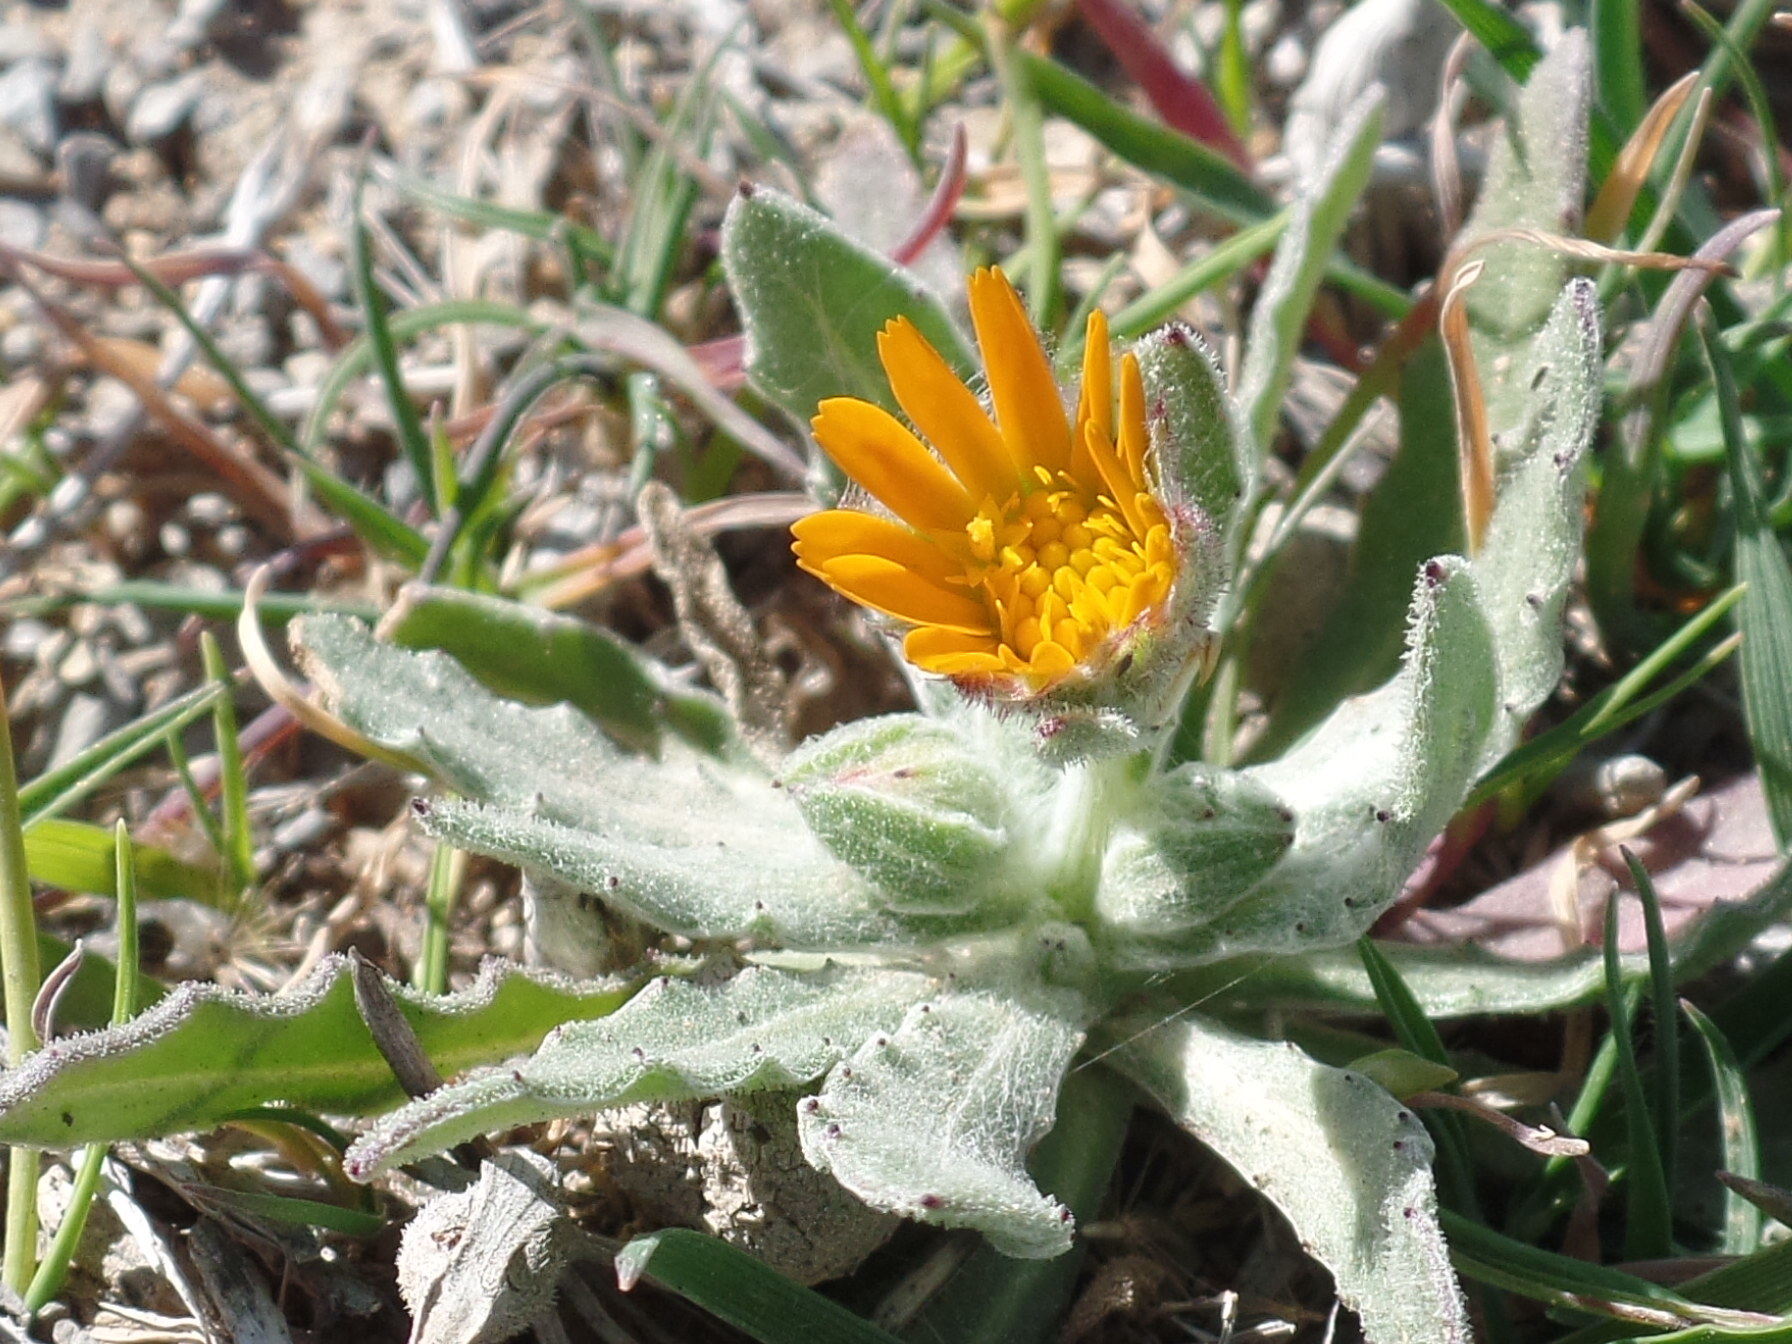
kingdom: Plantae
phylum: Tracheophyta
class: Magnoliopsida
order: Asterales
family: Asteraceae
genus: Calendula
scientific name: Calendula arvensis
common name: Field marigold
